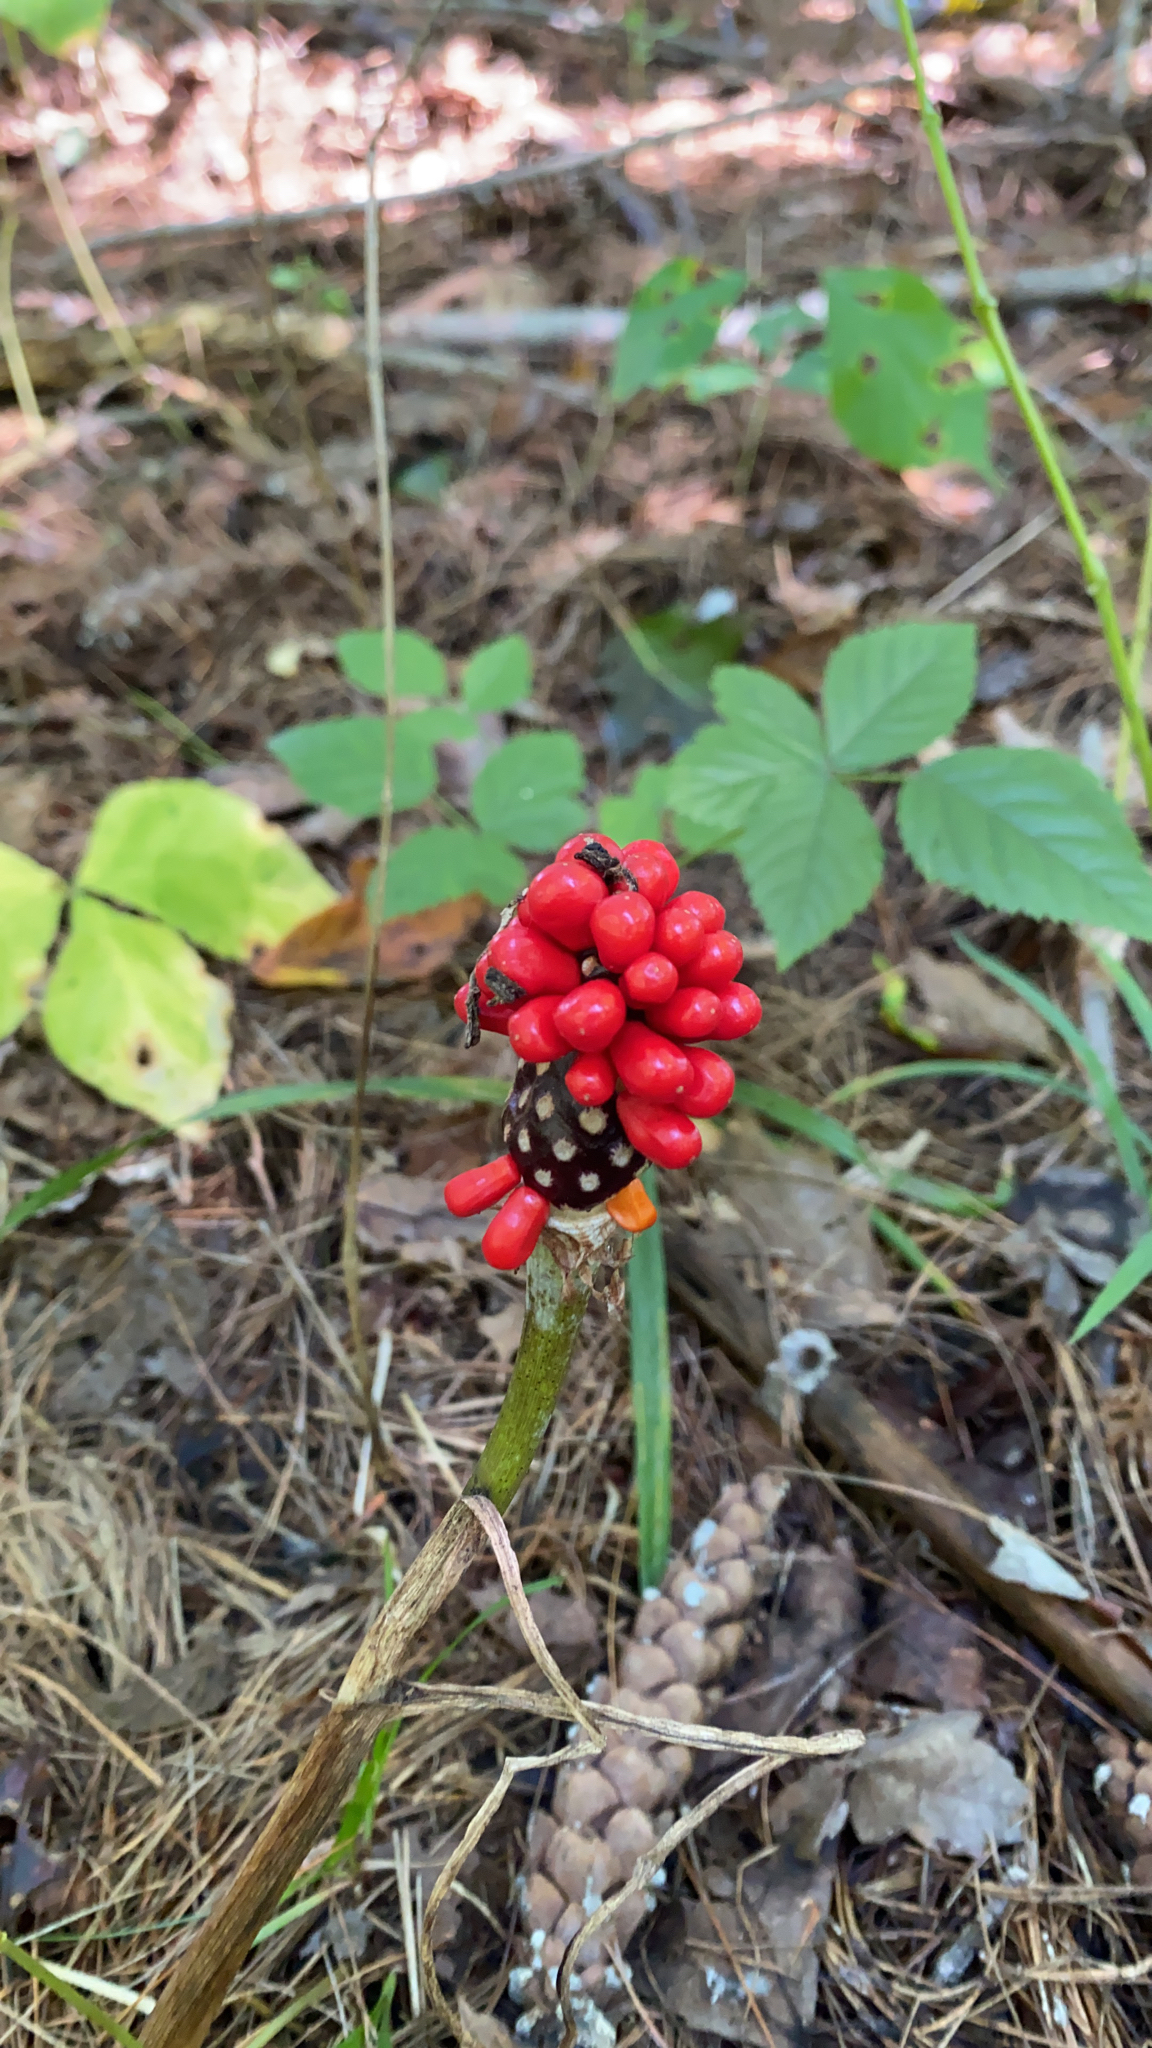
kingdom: Plantae
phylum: Tracheophyta
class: Liliopsida
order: Alismatales
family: Araceae
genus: Arisaema
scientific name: Arisaema triphyllum
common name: Jack-in-the-pulpit
